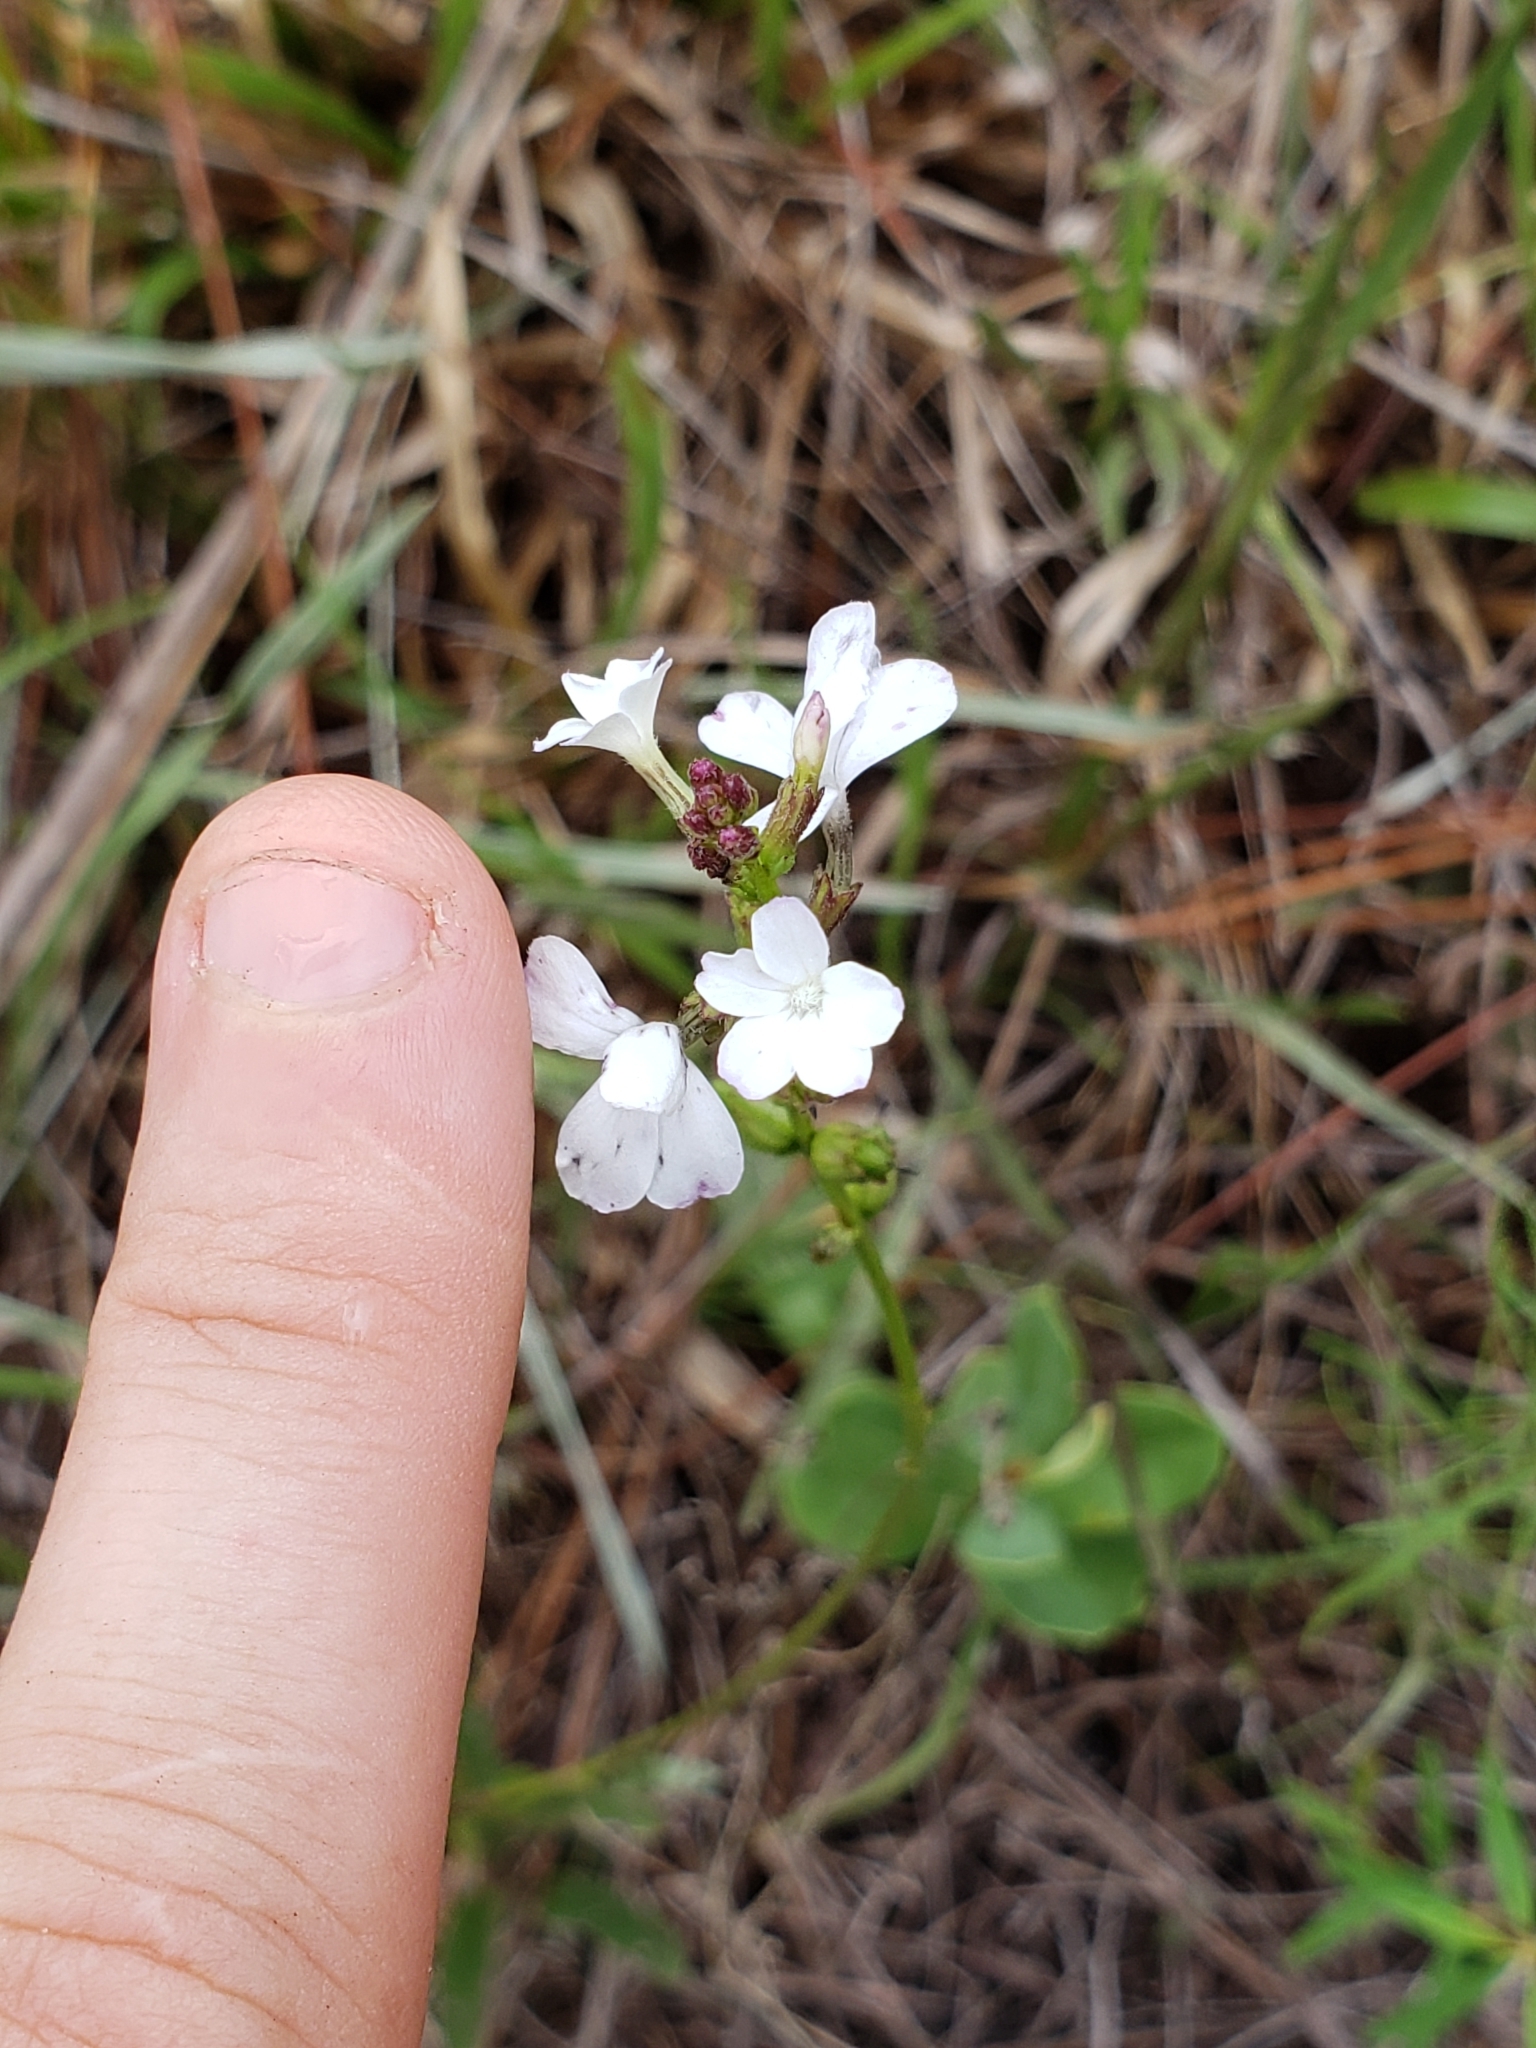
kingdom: Plantae
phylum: Tracheophyta
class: Magnoliopsida
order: Lamiales
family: Orobanchaceae
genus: Buchnera
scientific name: Buchnera floridana
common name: Florida bluehearts
